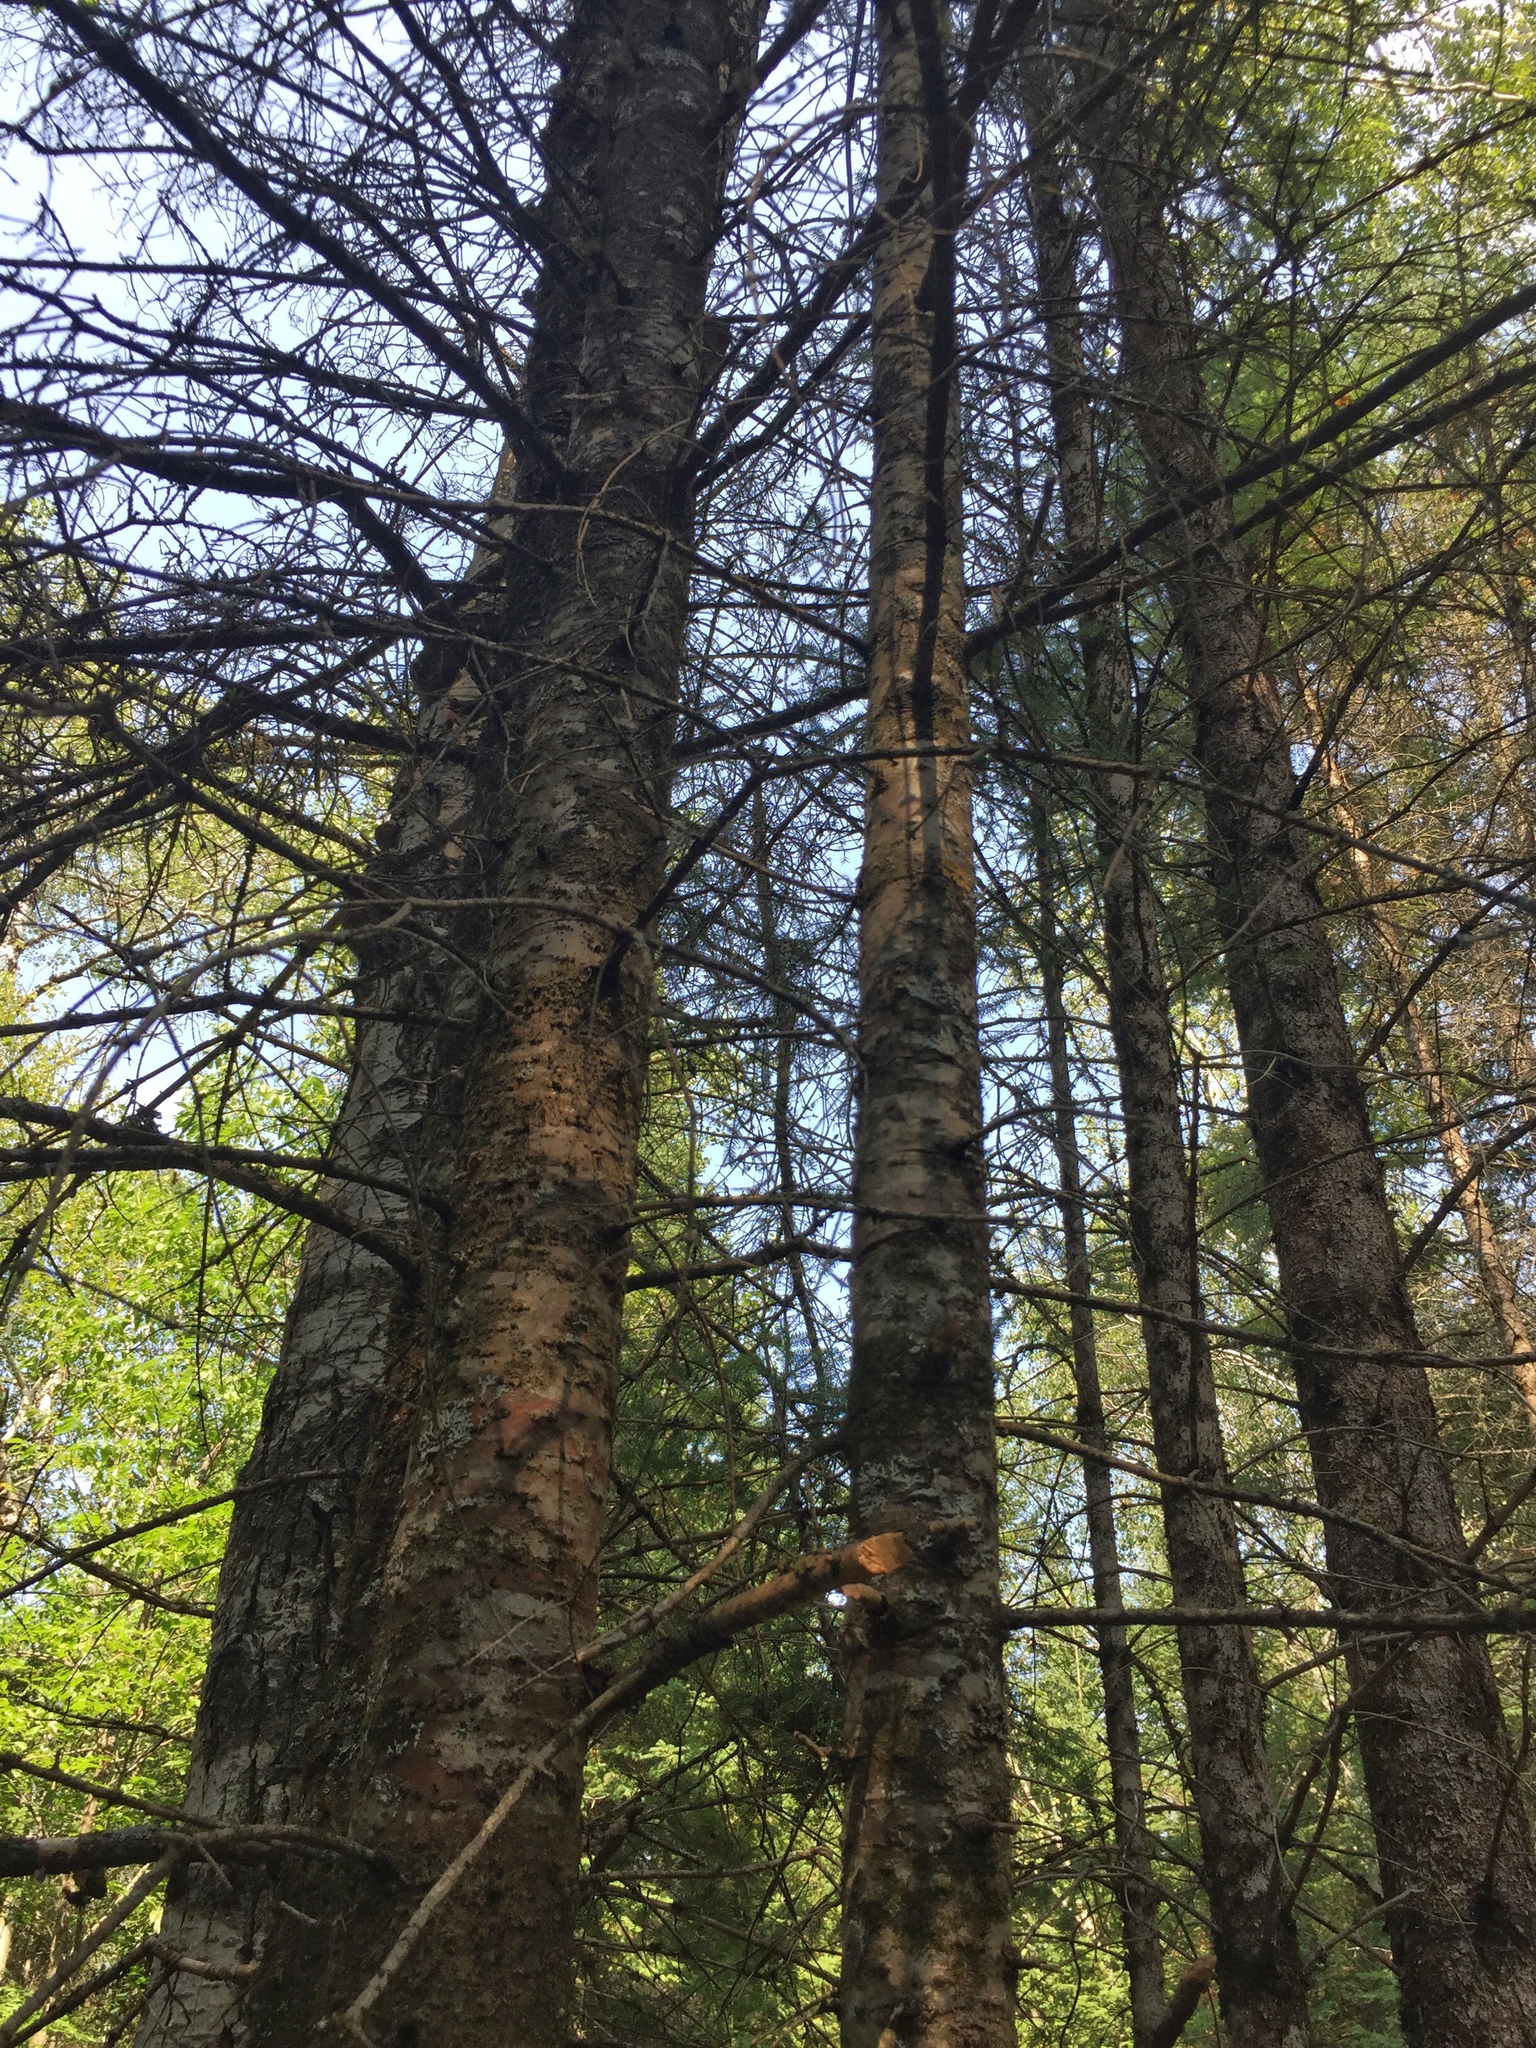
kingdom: Plantae
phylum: Tracheophyta
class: Pinopsida
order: Pinales
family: Pinaceae
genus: Abies
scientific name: Abies balsamea
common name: Balsam fir
